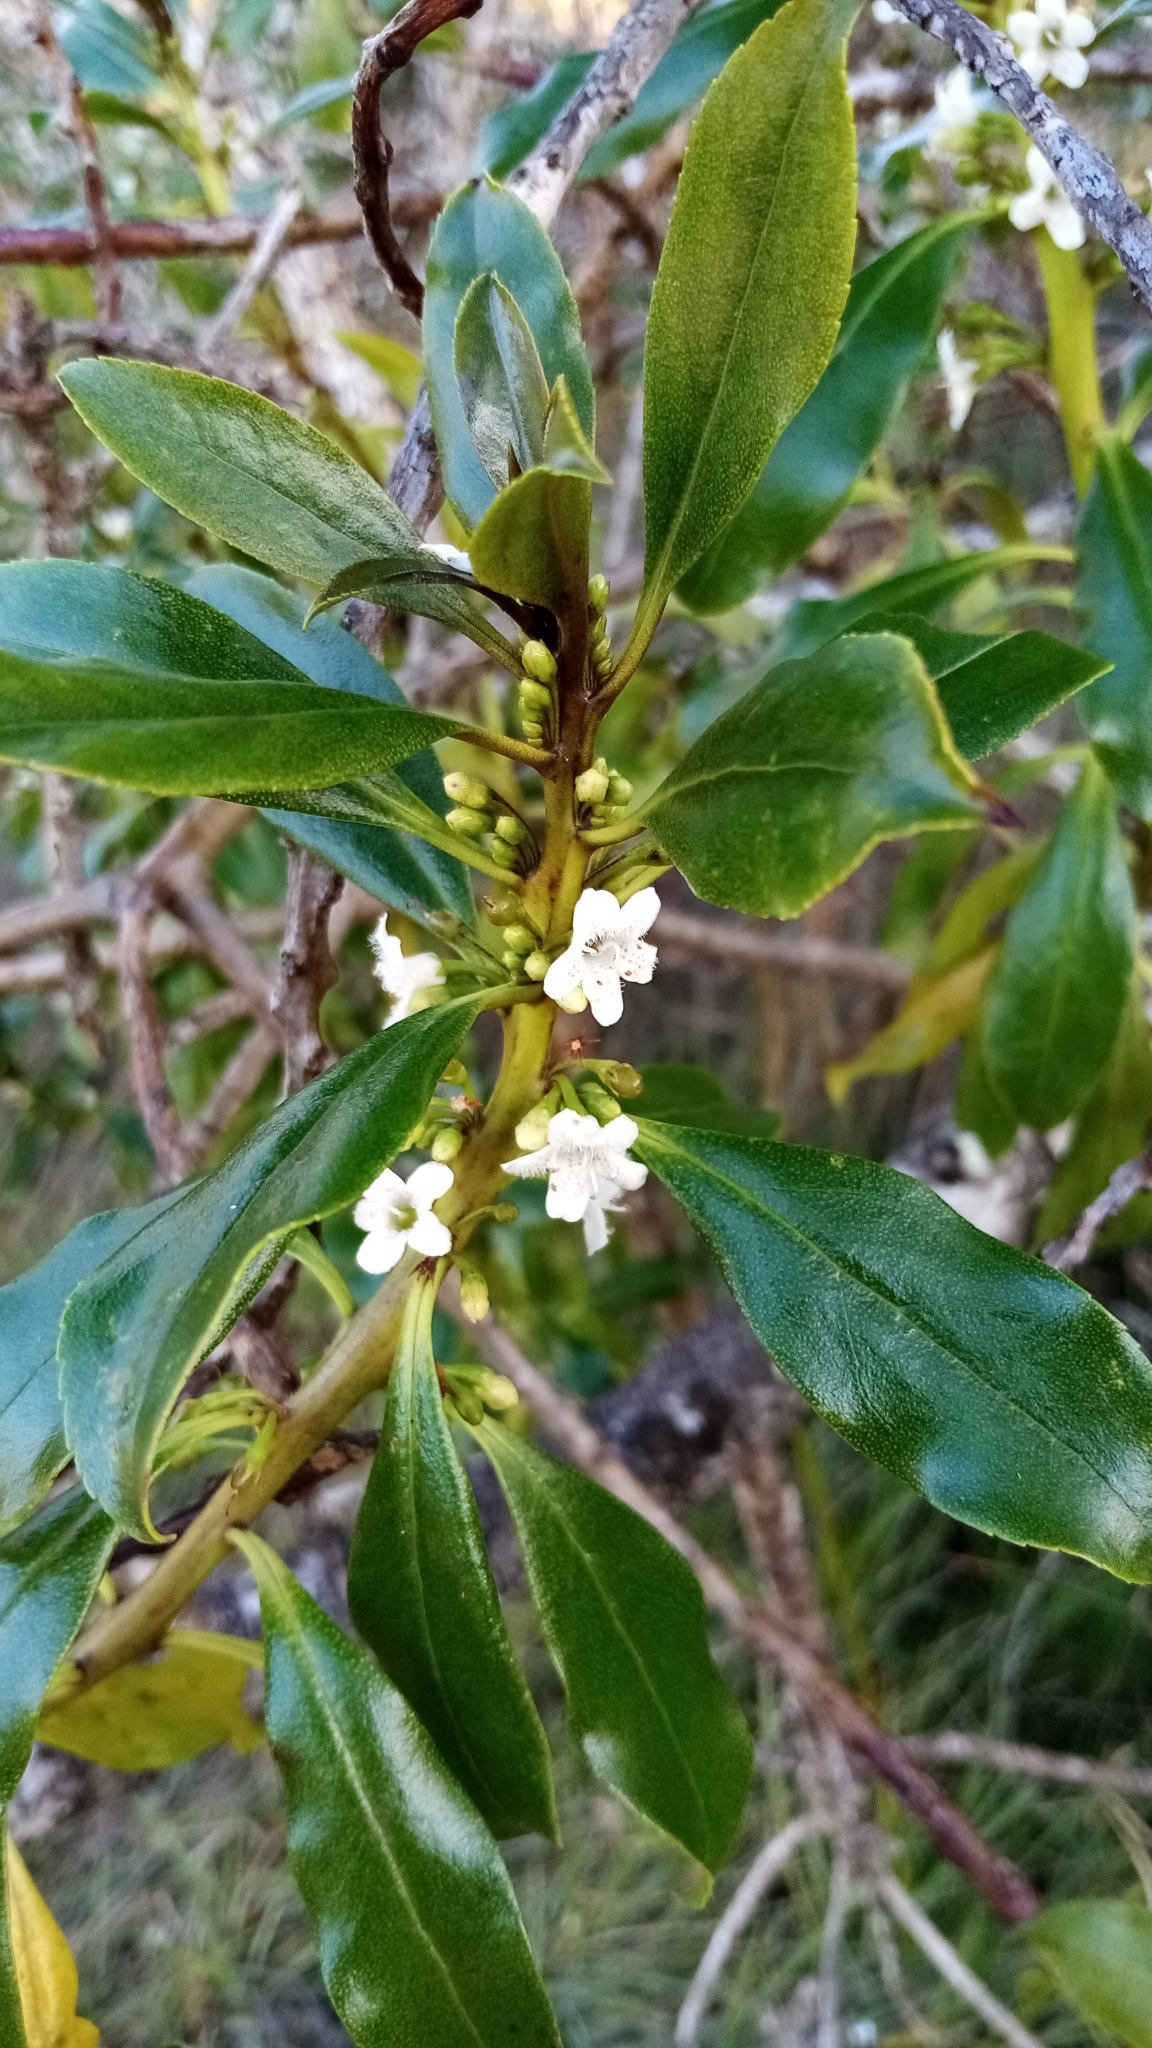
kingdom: Plantae
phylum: Tracheophyta
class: Magnoliopsida
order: Lamiales
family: Scrophulariaceae
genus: Myoporum
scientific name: Myoporum laetum
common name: Ngaio tree
